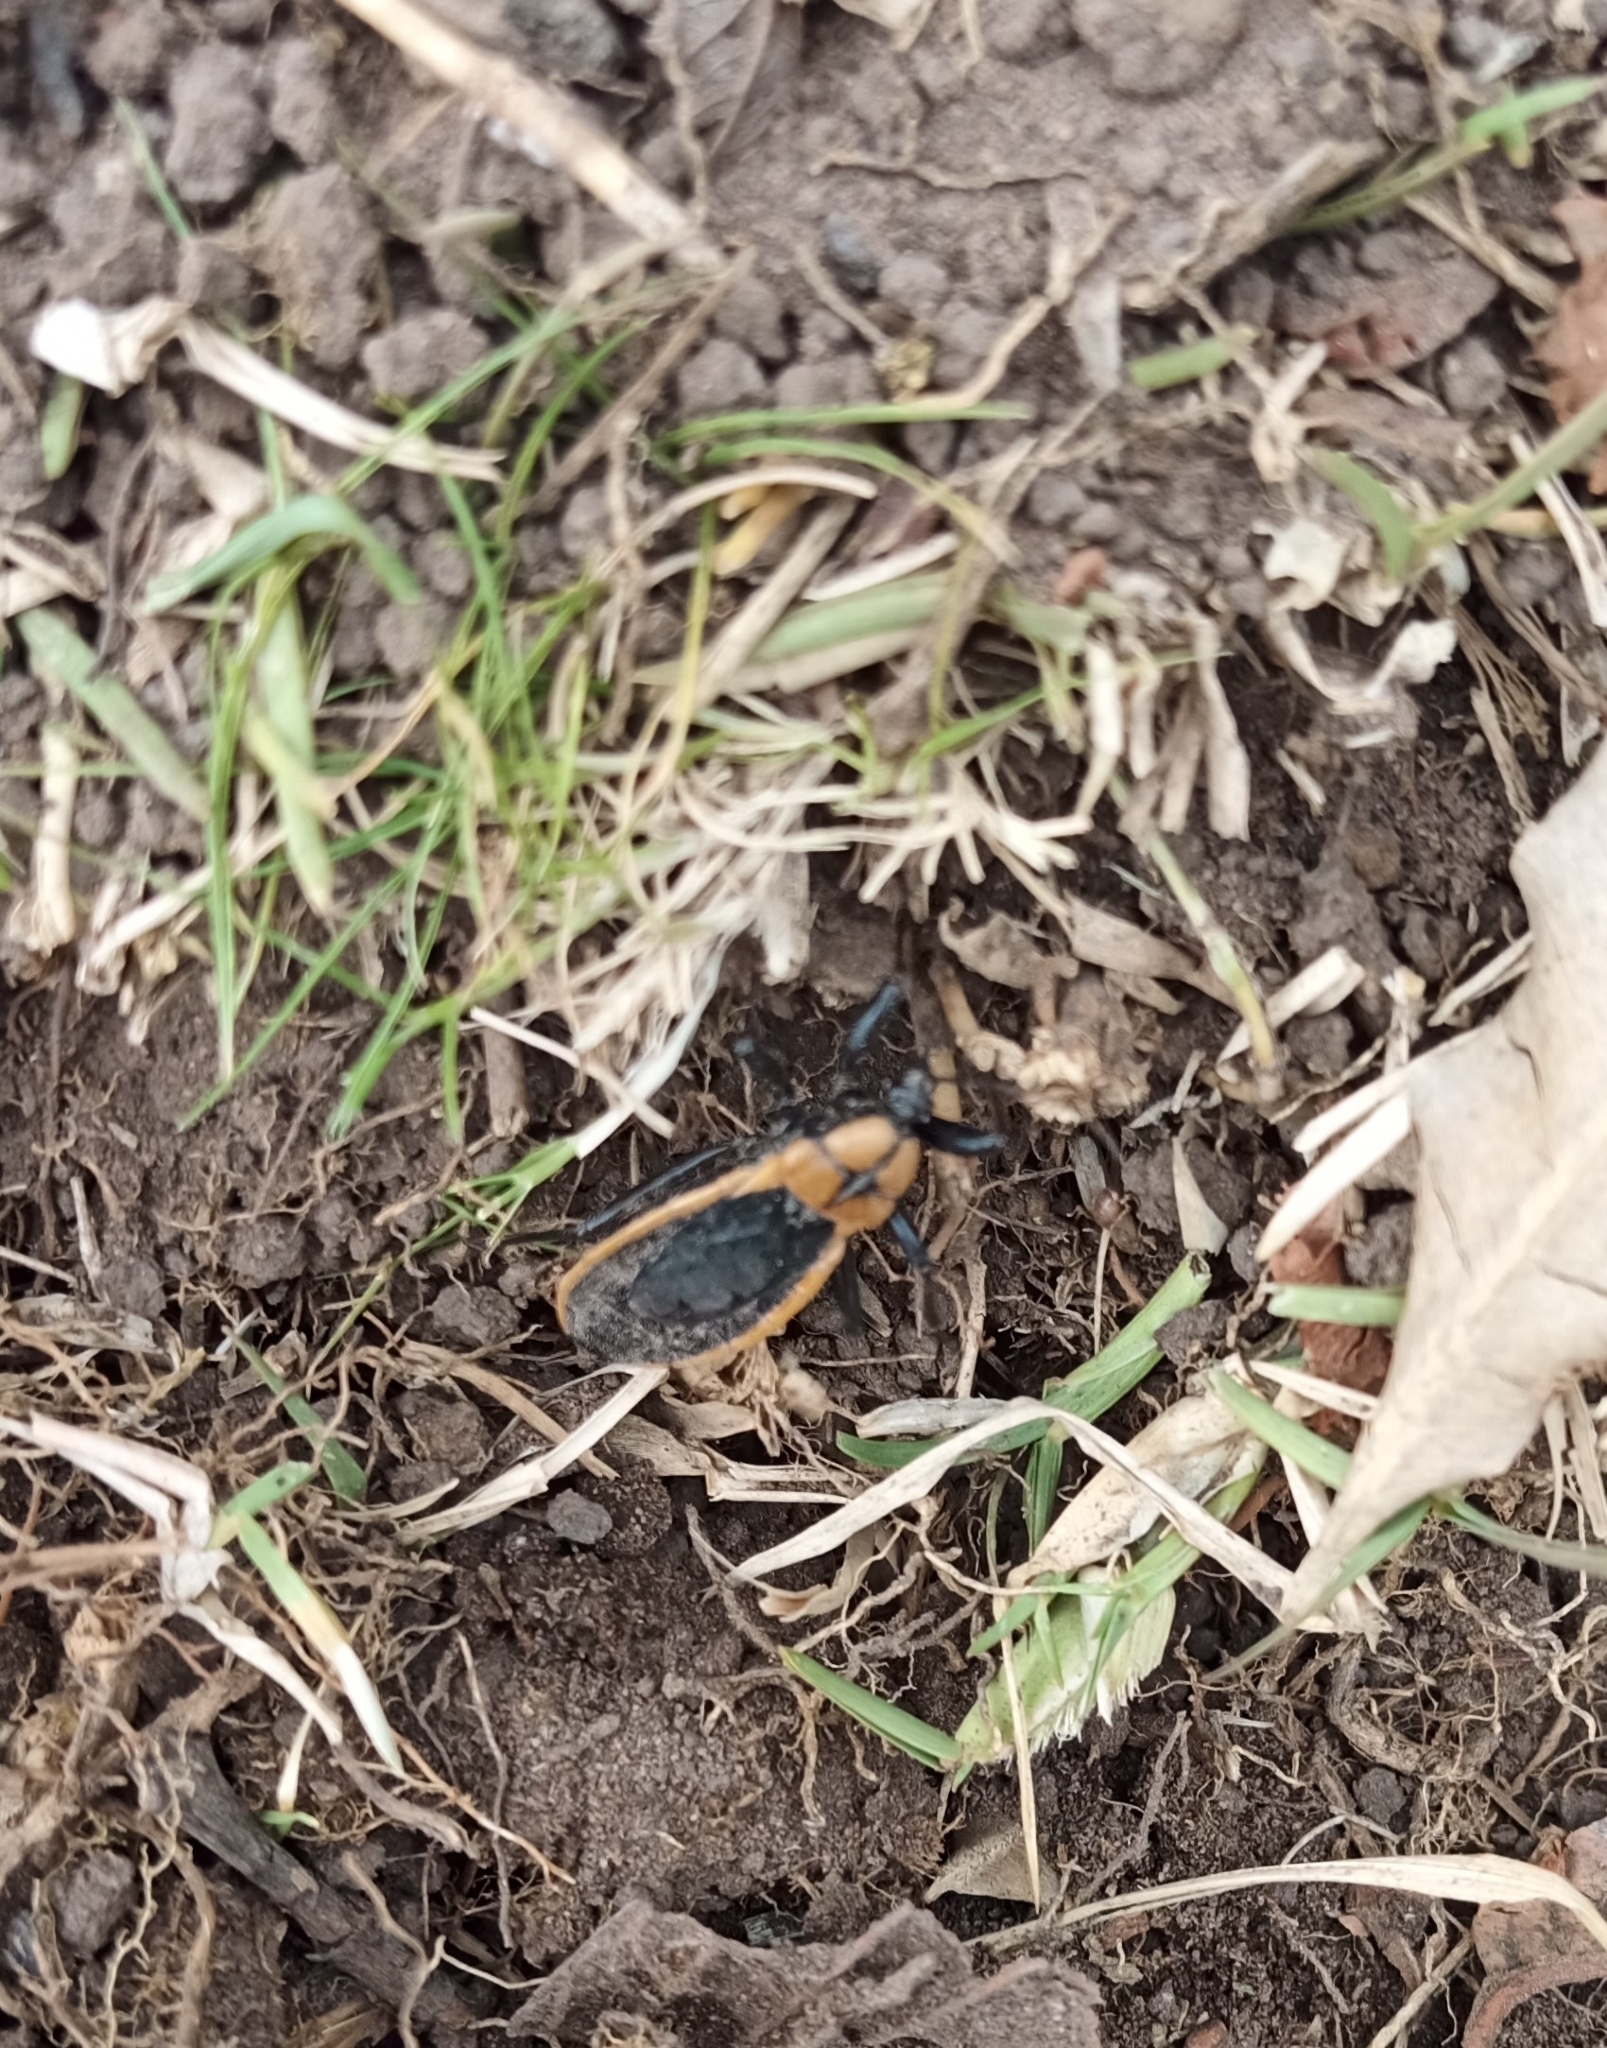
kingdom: Animalia
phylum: Arthropoda
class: Insecta
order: Hemiptera
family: Reduviidae
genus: Ectrichodia
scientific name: Ectrichodia crux
